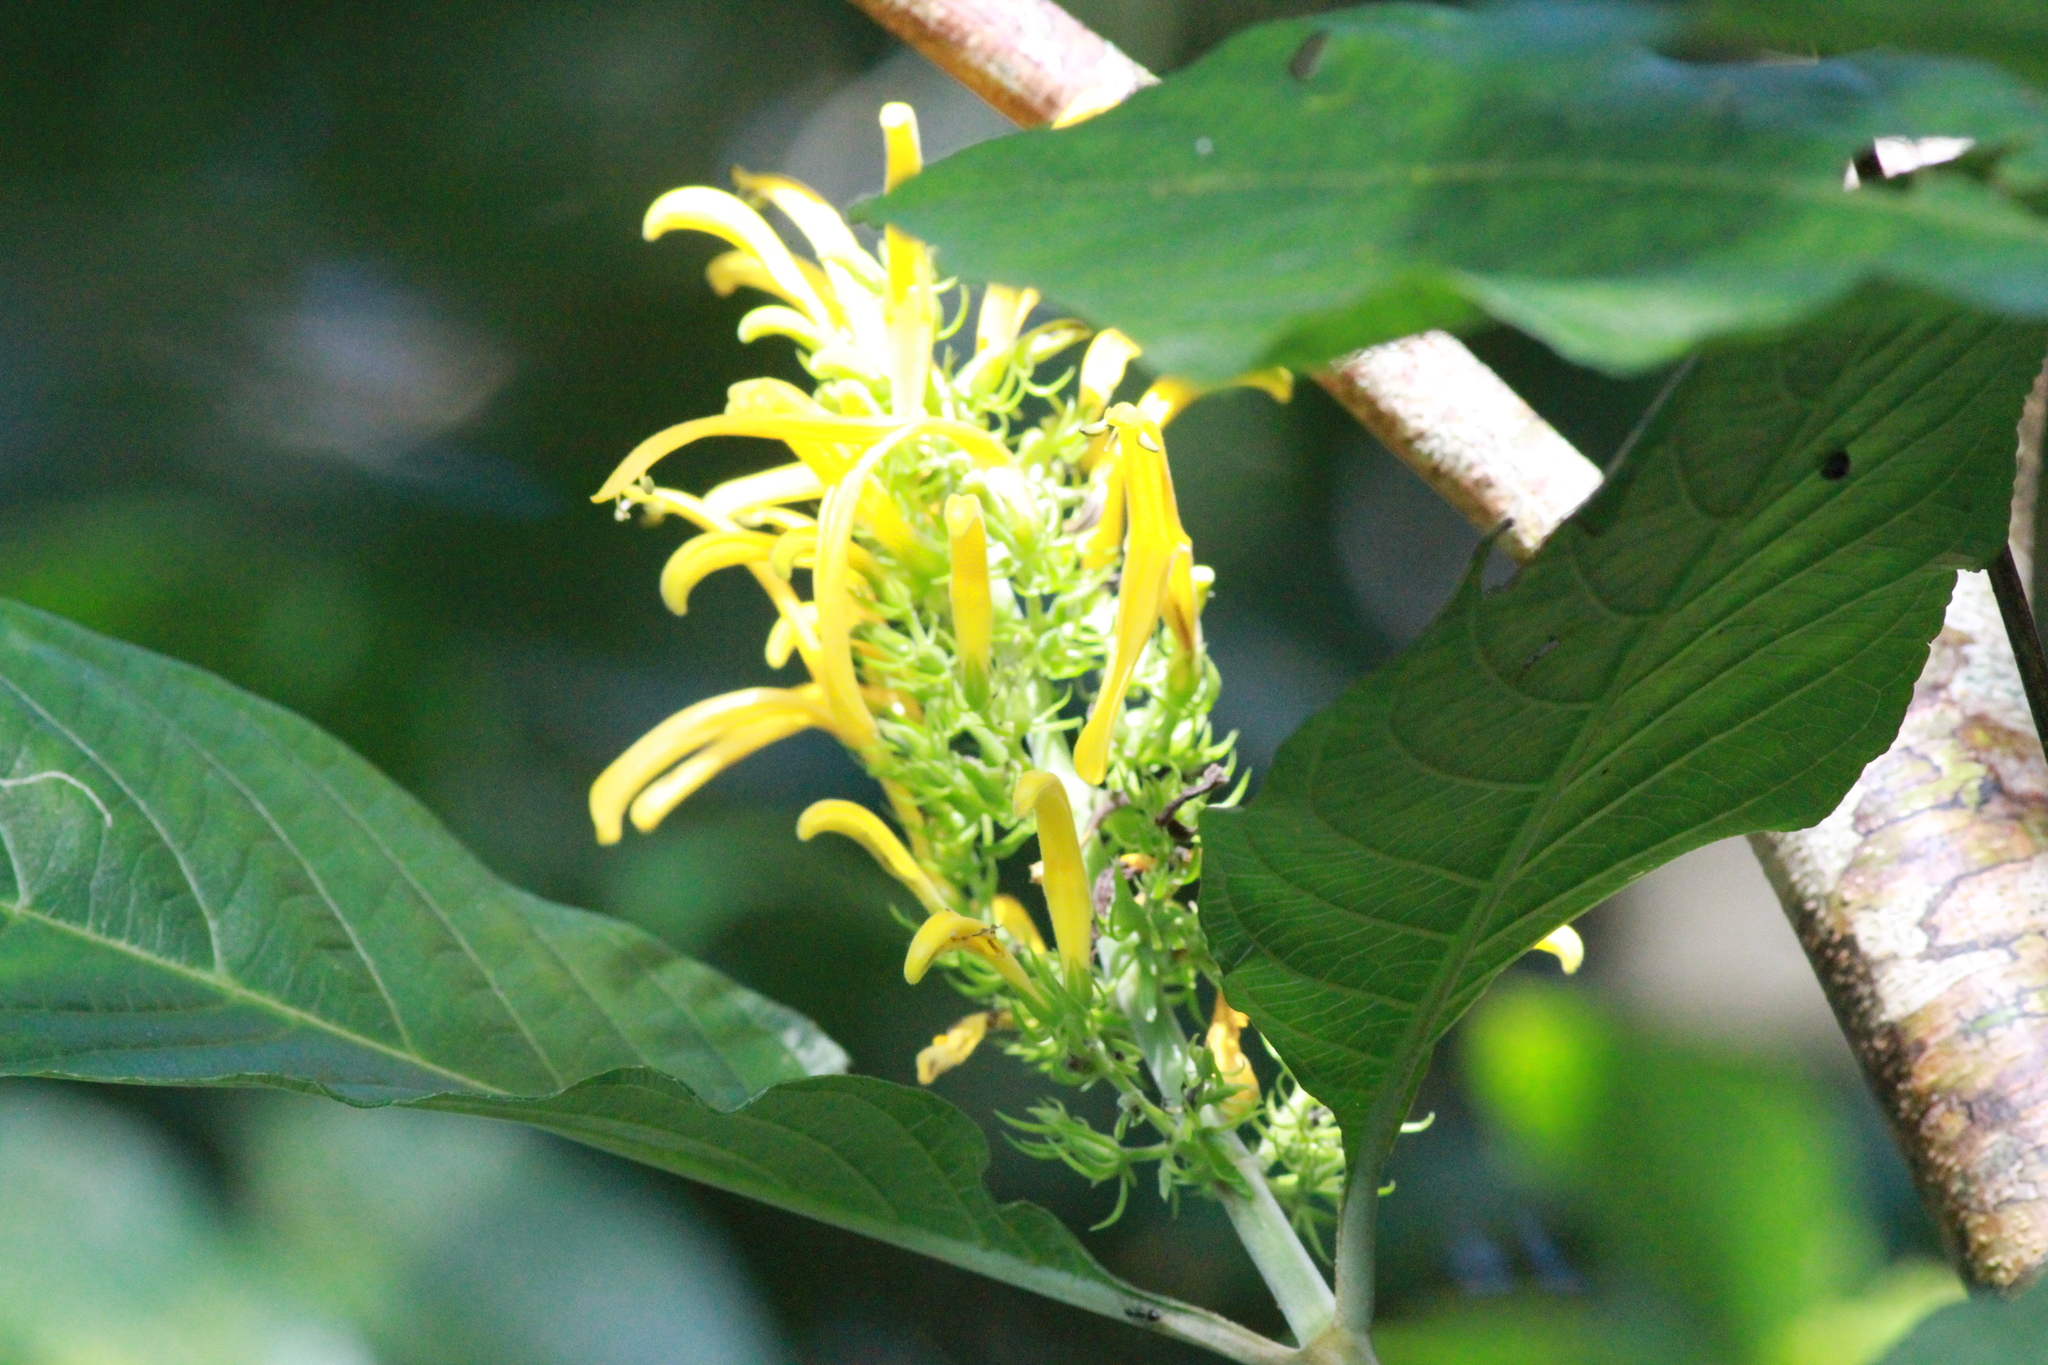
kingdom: Plantae
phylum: Tracheophyta
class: Magnoliopsida
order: Lamiales
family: Acanthaceae
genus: Justicia
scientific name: Justicia aurea
